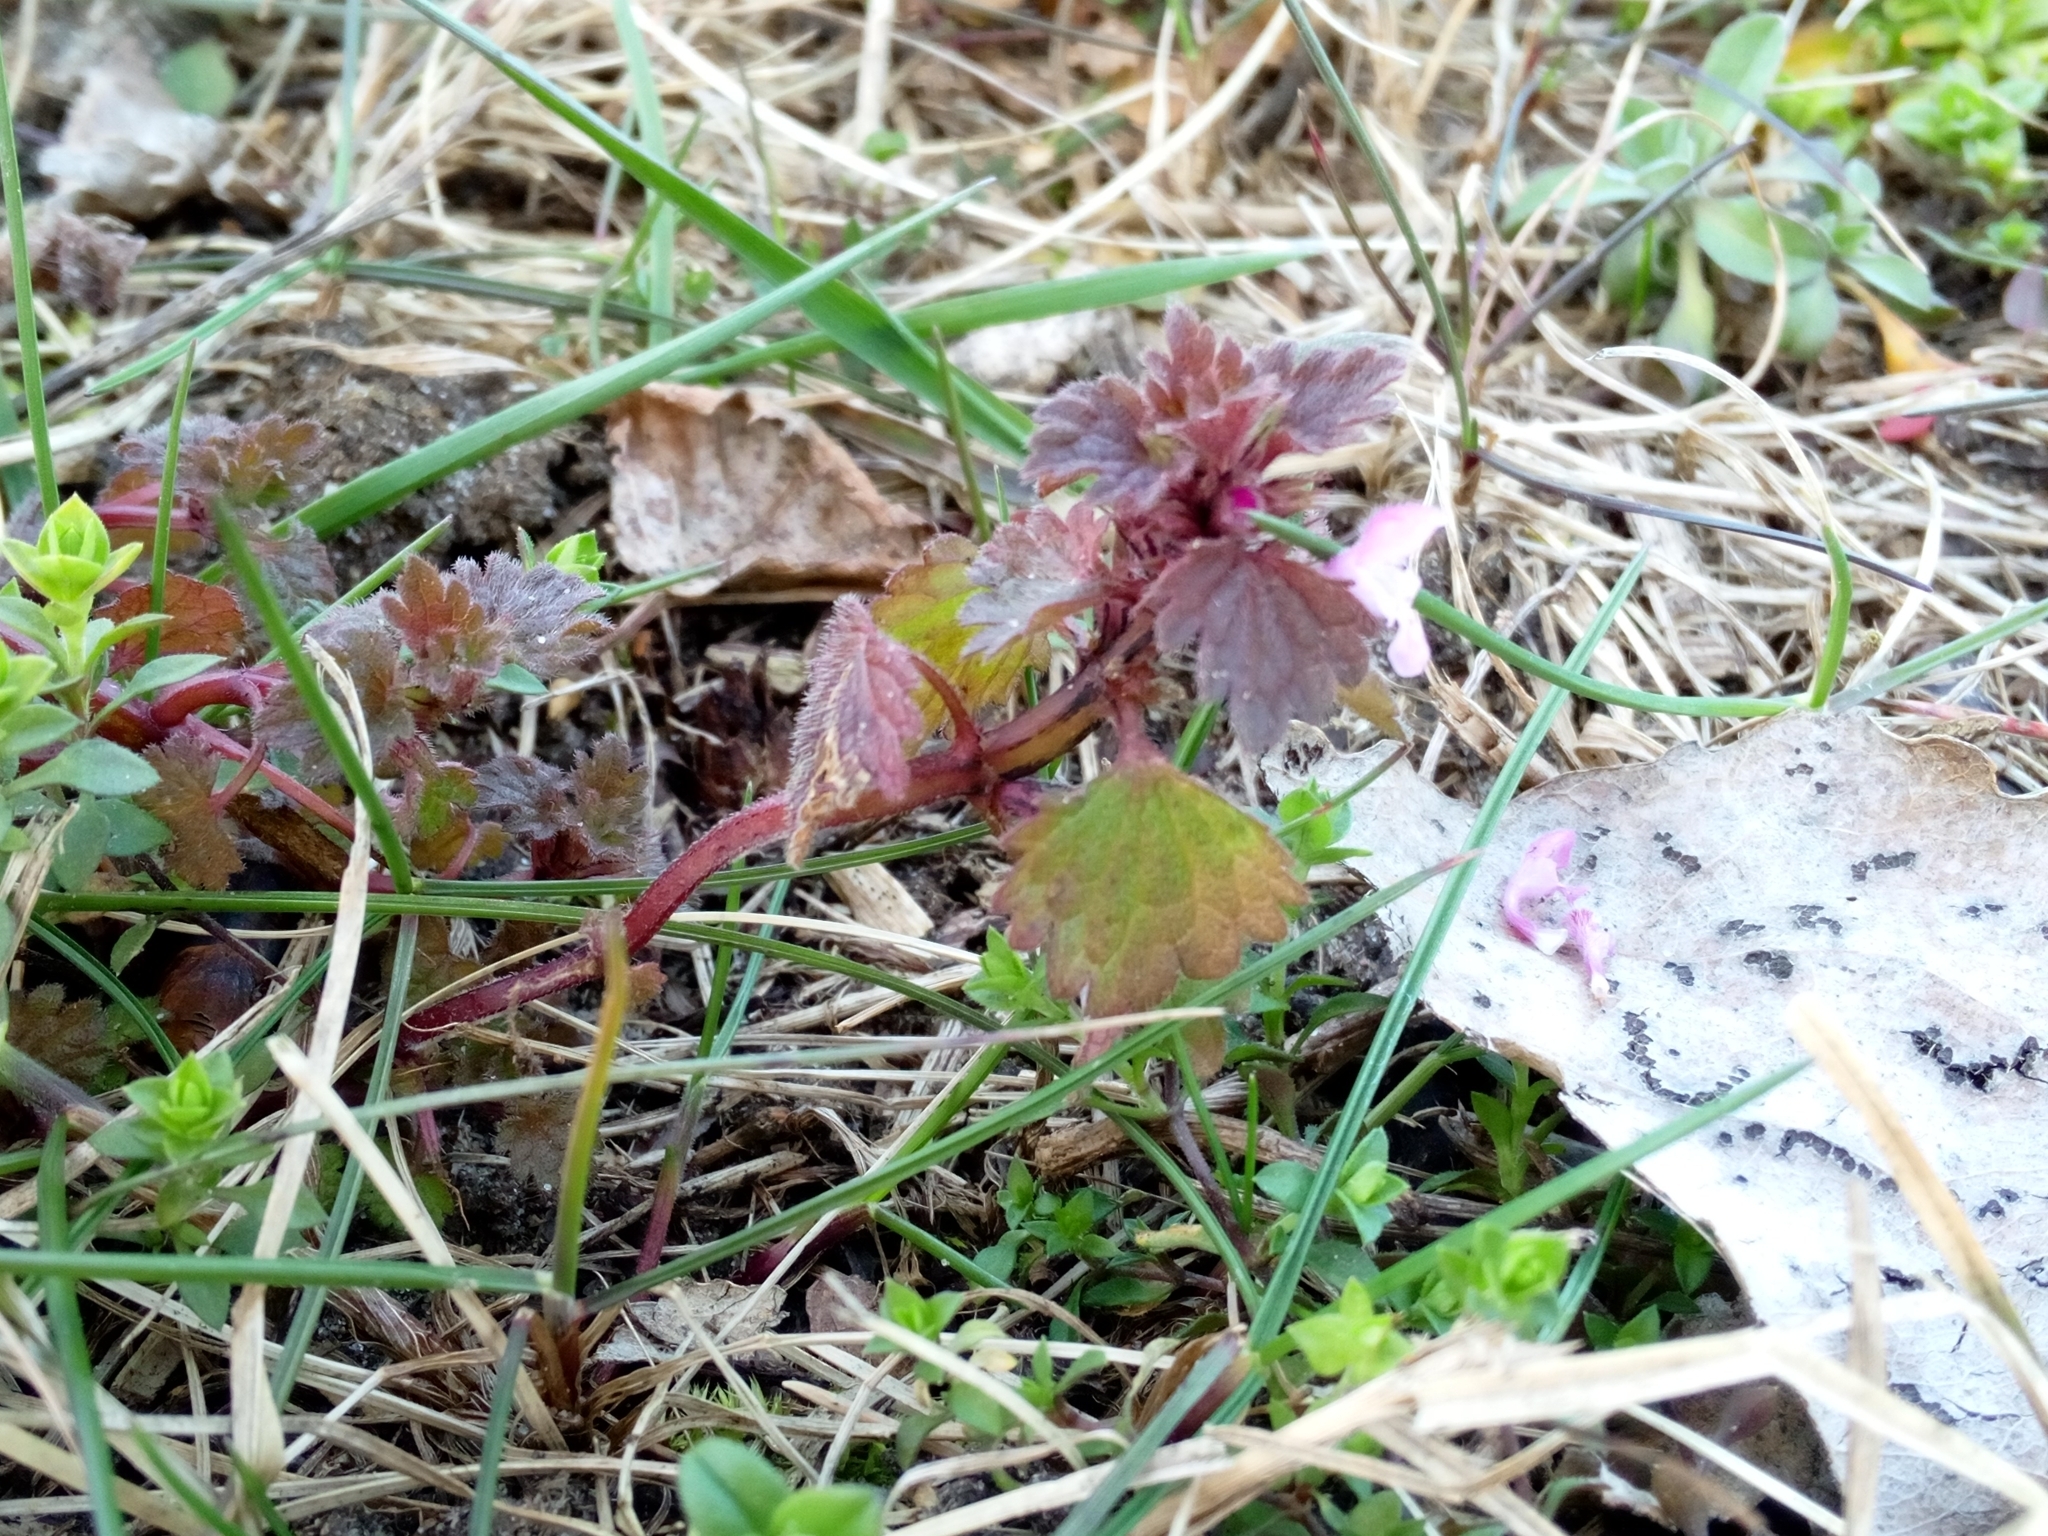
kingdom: Plantae
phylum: Tracheophyta
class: Magnoliopsida
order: Lamiales
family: Lamiaceae
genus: Lamium
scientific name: Lamium hybridum
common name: Cut-leaved dead-nettle
